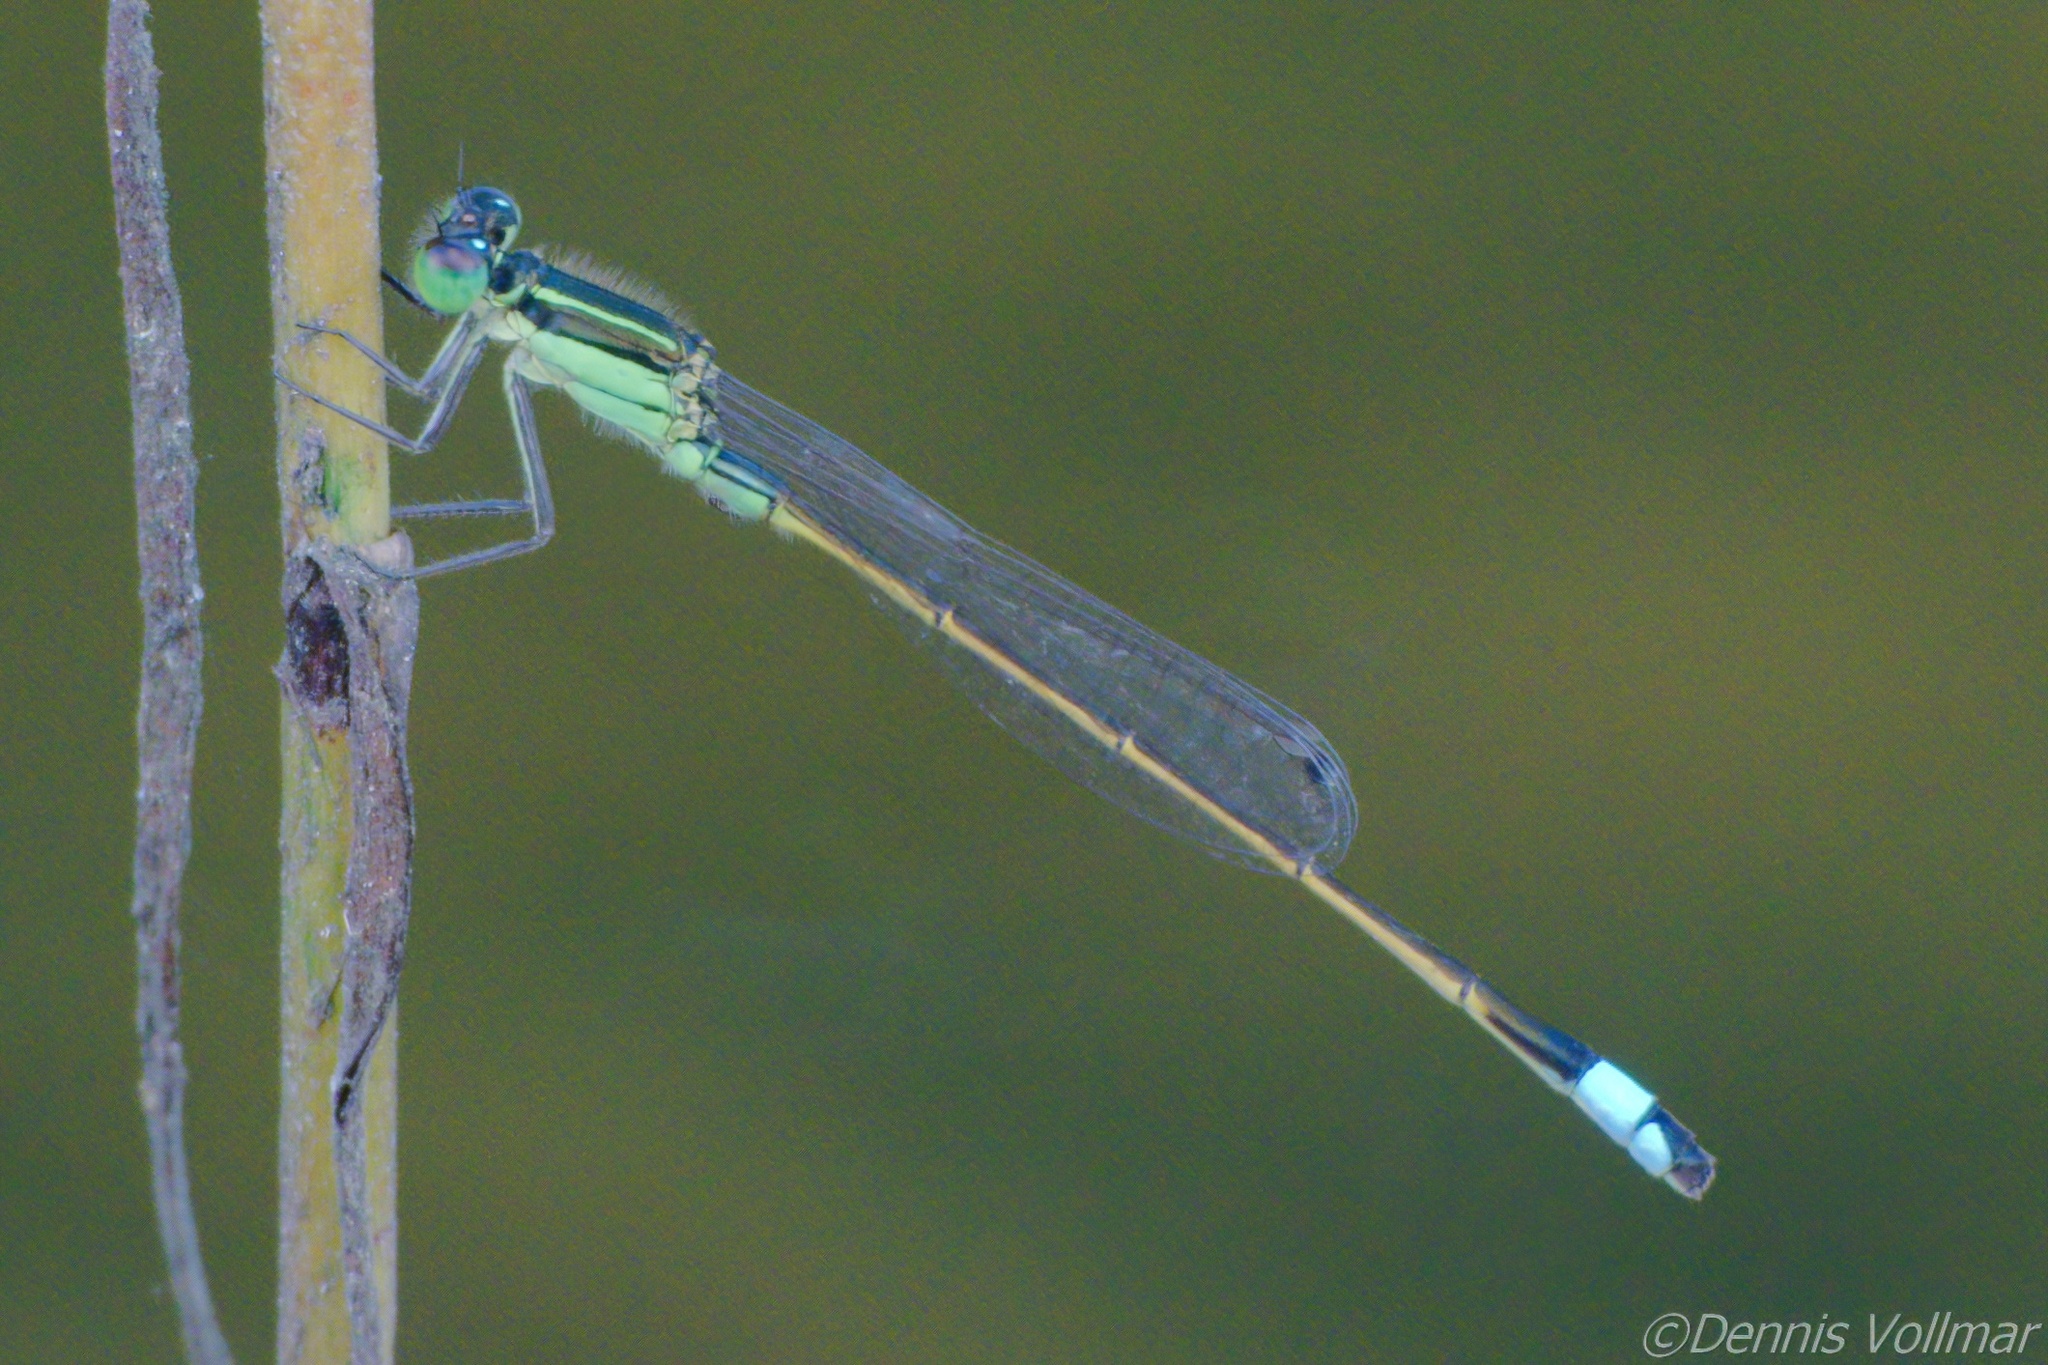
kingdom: Animalia
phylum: Arthropoda
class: Insecta
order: Odonata
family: Coenagrionidae
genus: Ischnura
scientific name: Ischnura ramburii
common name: Rambur's forktail
